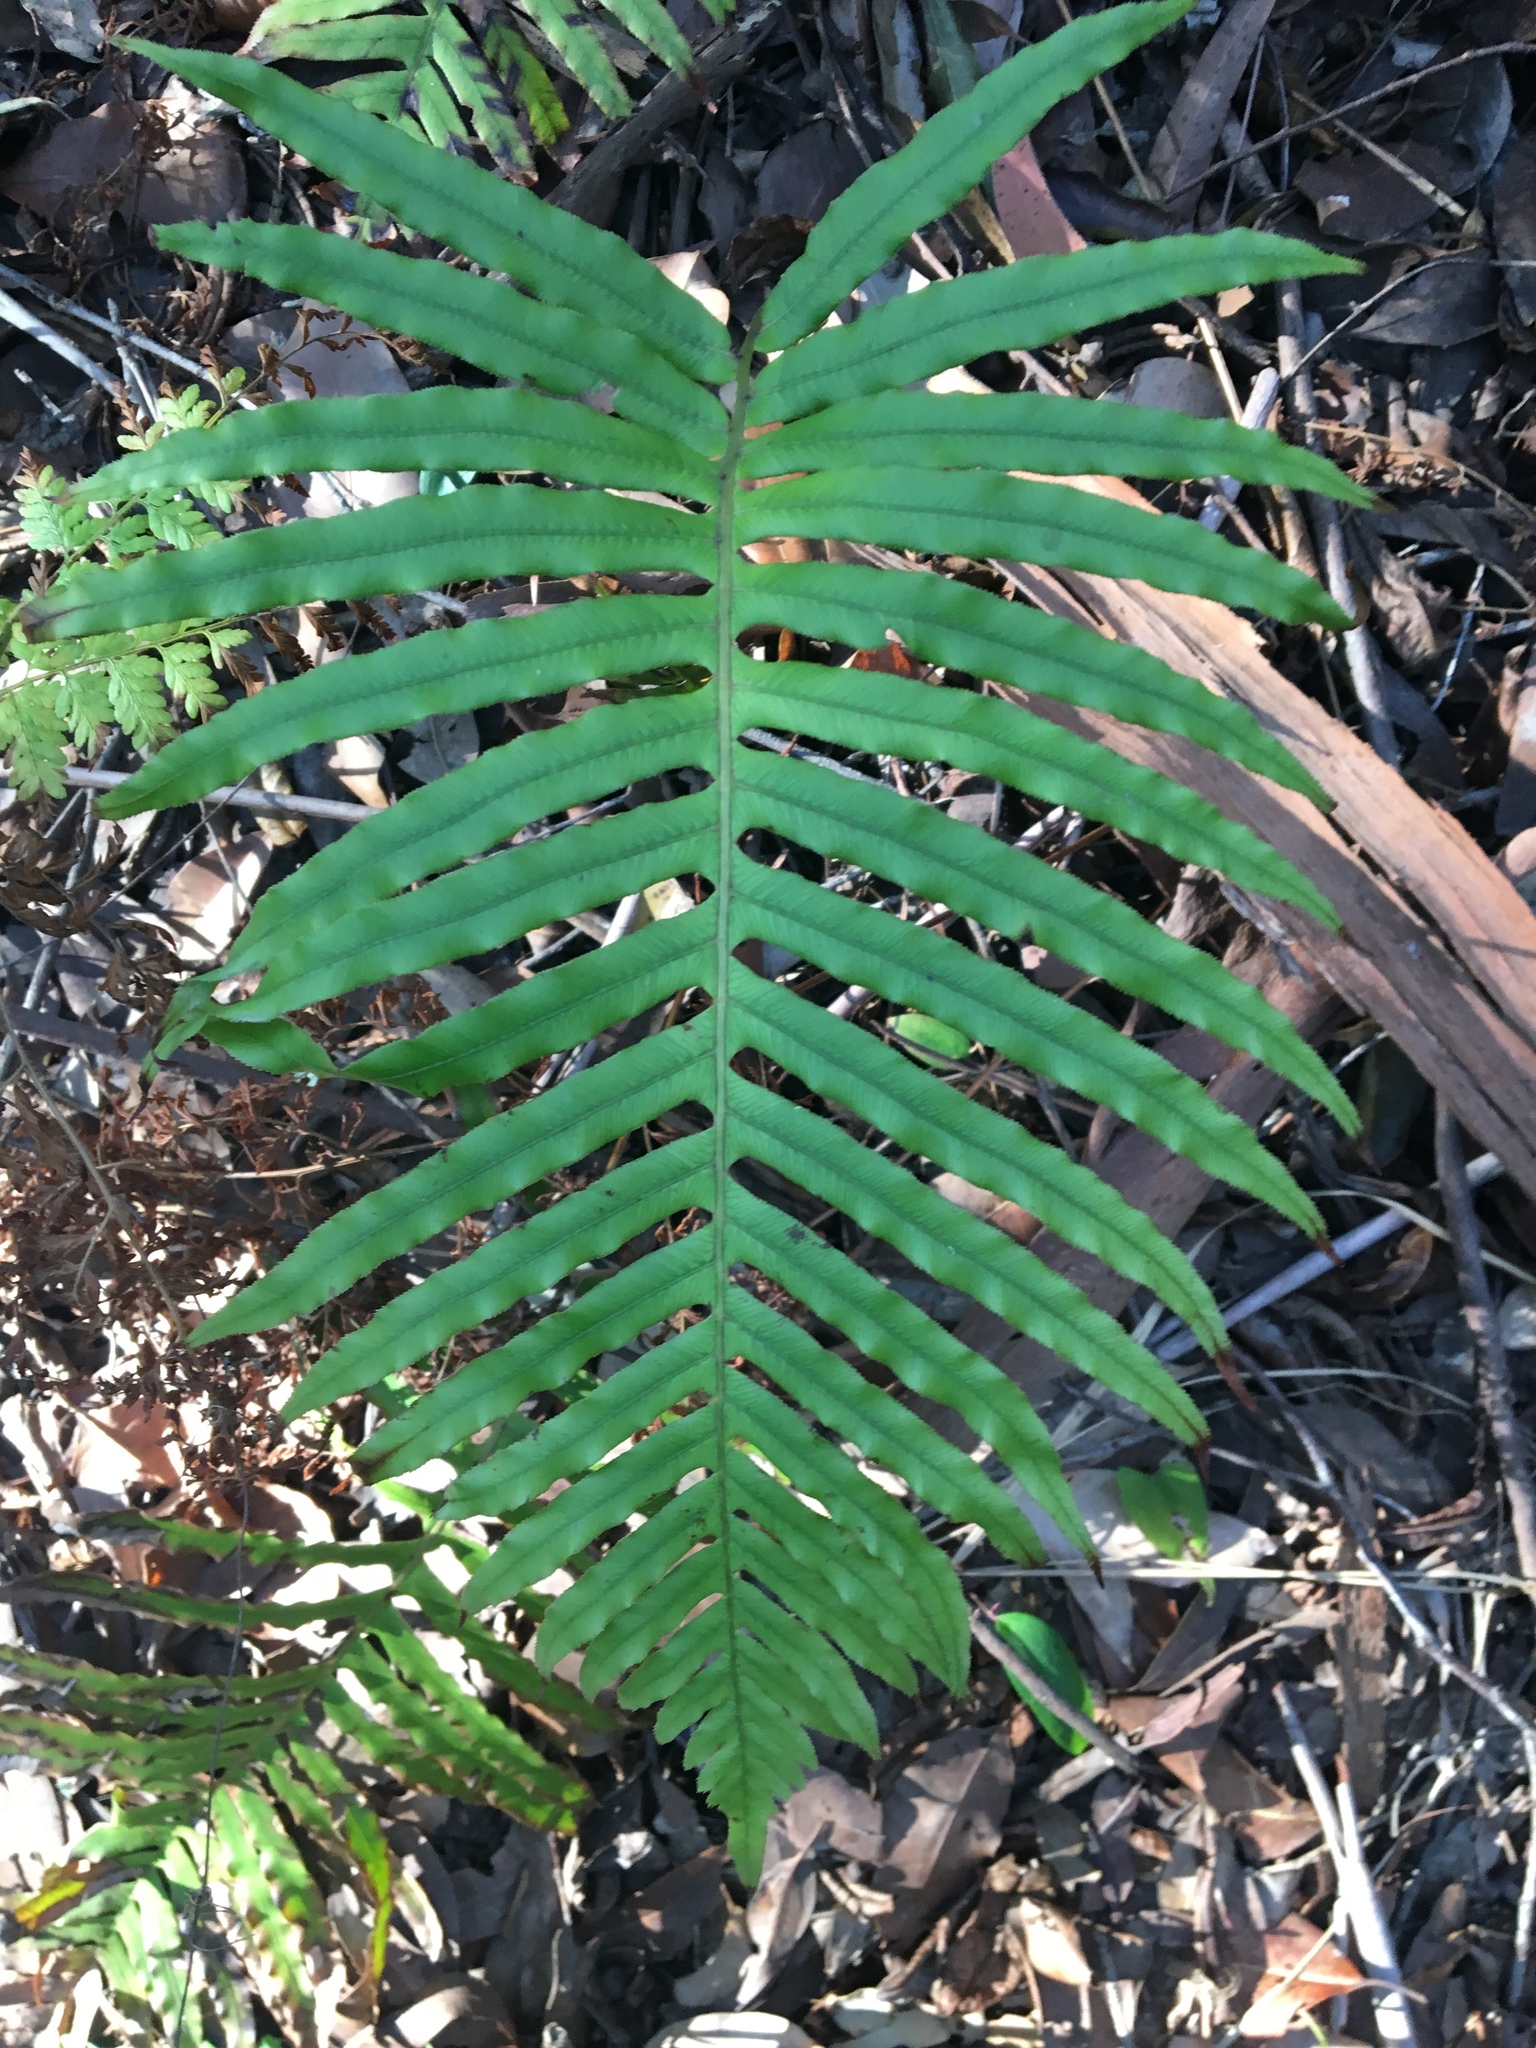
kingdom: Plantae
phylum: Tracheophyta
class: Polypodiopsida
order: Polypodiales
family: Blechnaceae
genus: Oceaniopteris
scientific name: Oceaniopteris cartilaginea
